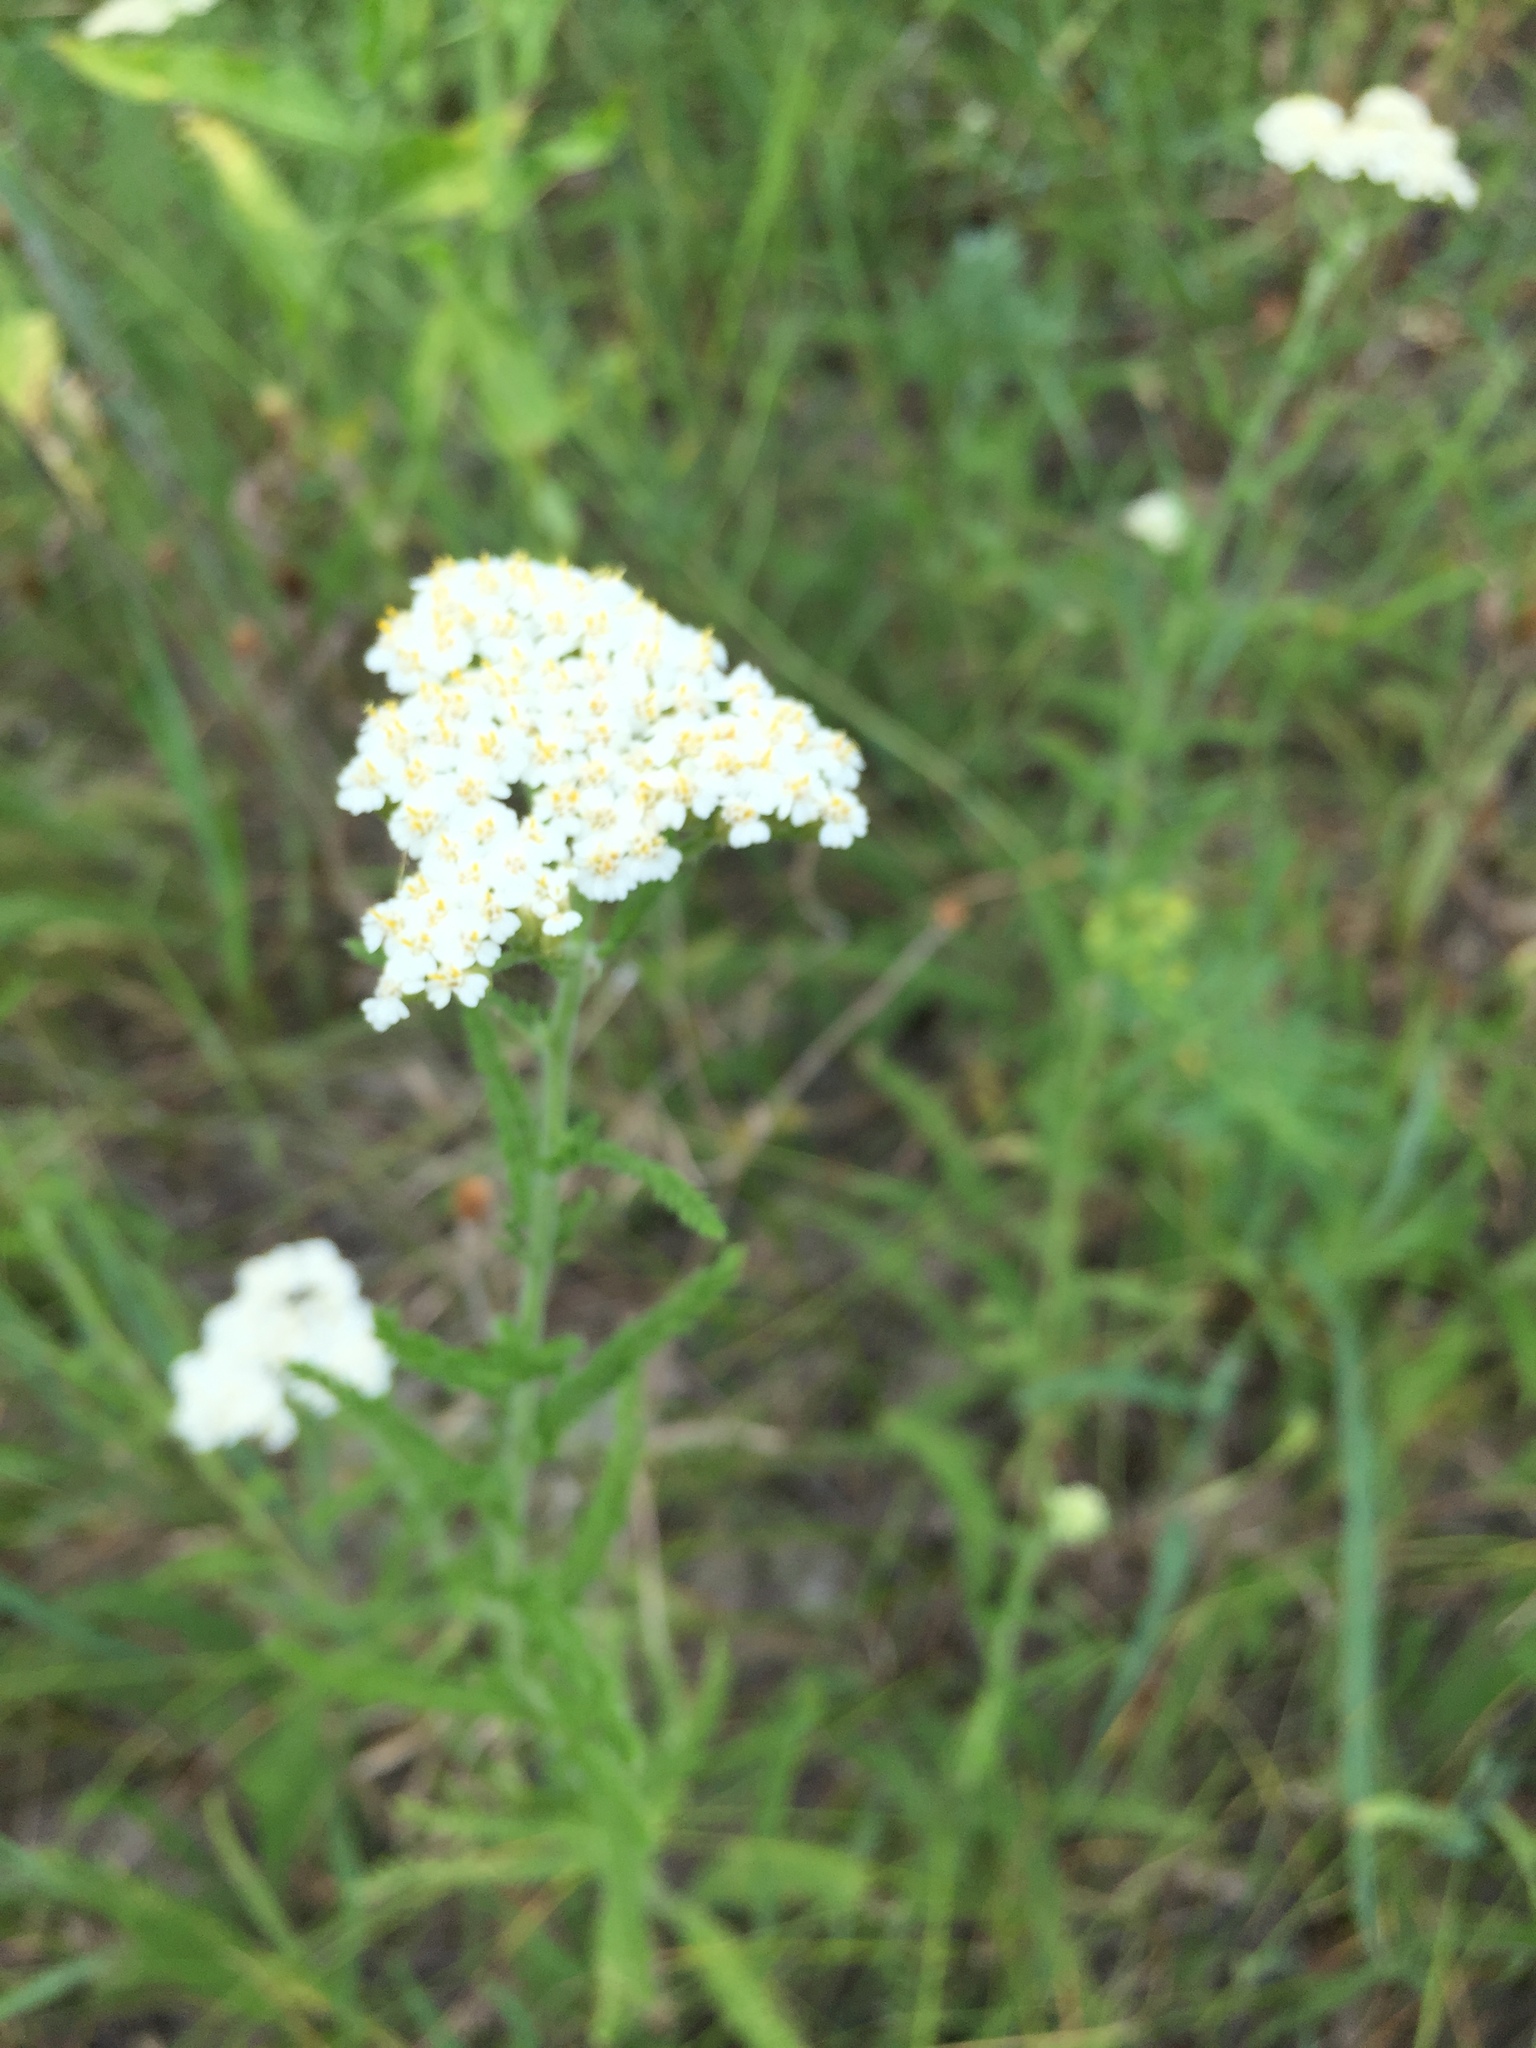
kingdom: Plantae
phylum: Tracheophyta
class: Magnoliopsida
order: Asterales
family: Asteraceae
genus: Achillea
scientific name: Achillea millefolium
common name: Yarrow
